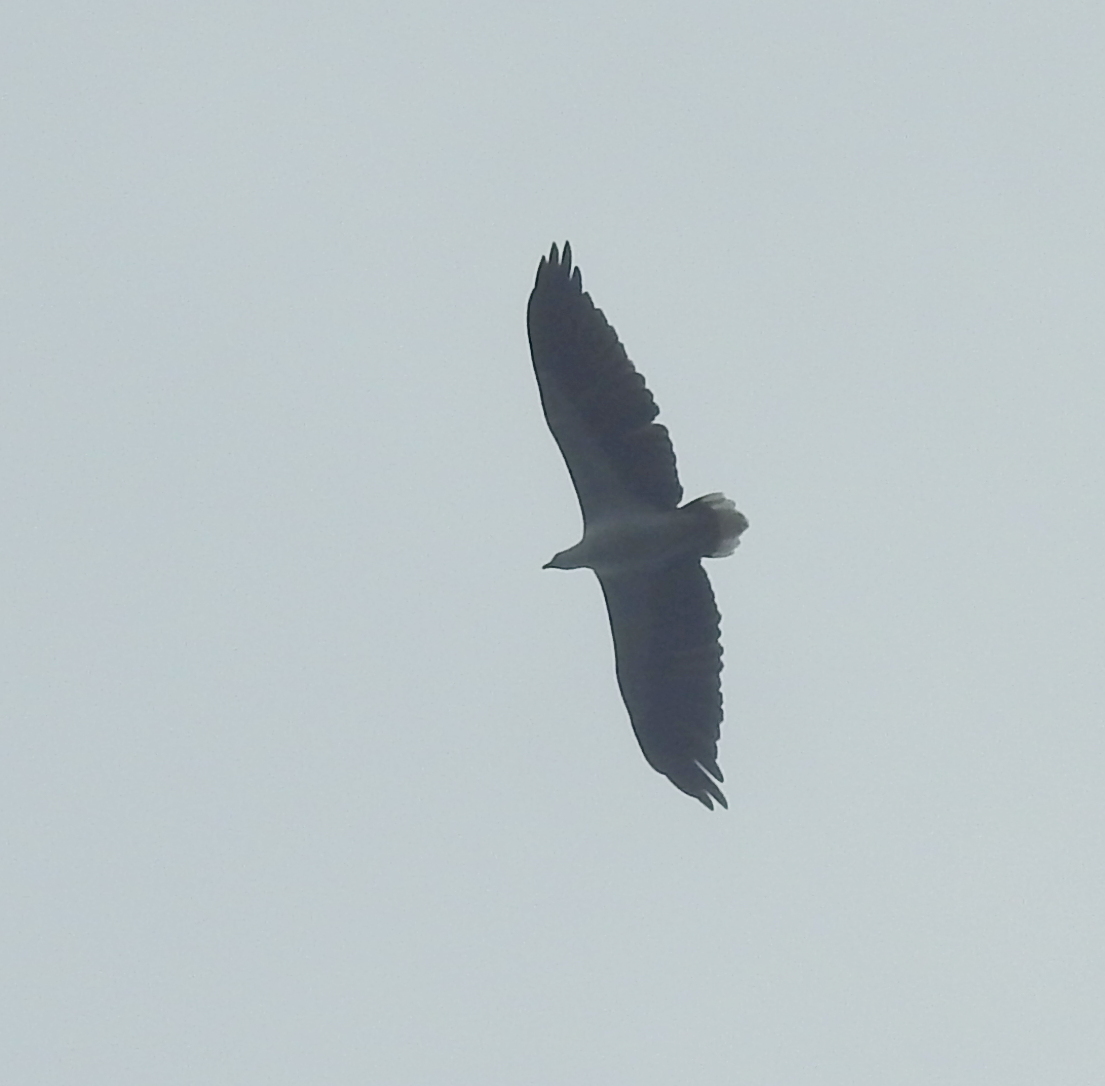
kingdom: Animalia
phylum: Chordata
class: Aves
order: Accipitriformes
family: Accipitridae
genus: Haliaeetus
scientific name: Haliaeetus leucogaster
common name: White-bellied sea eagle
